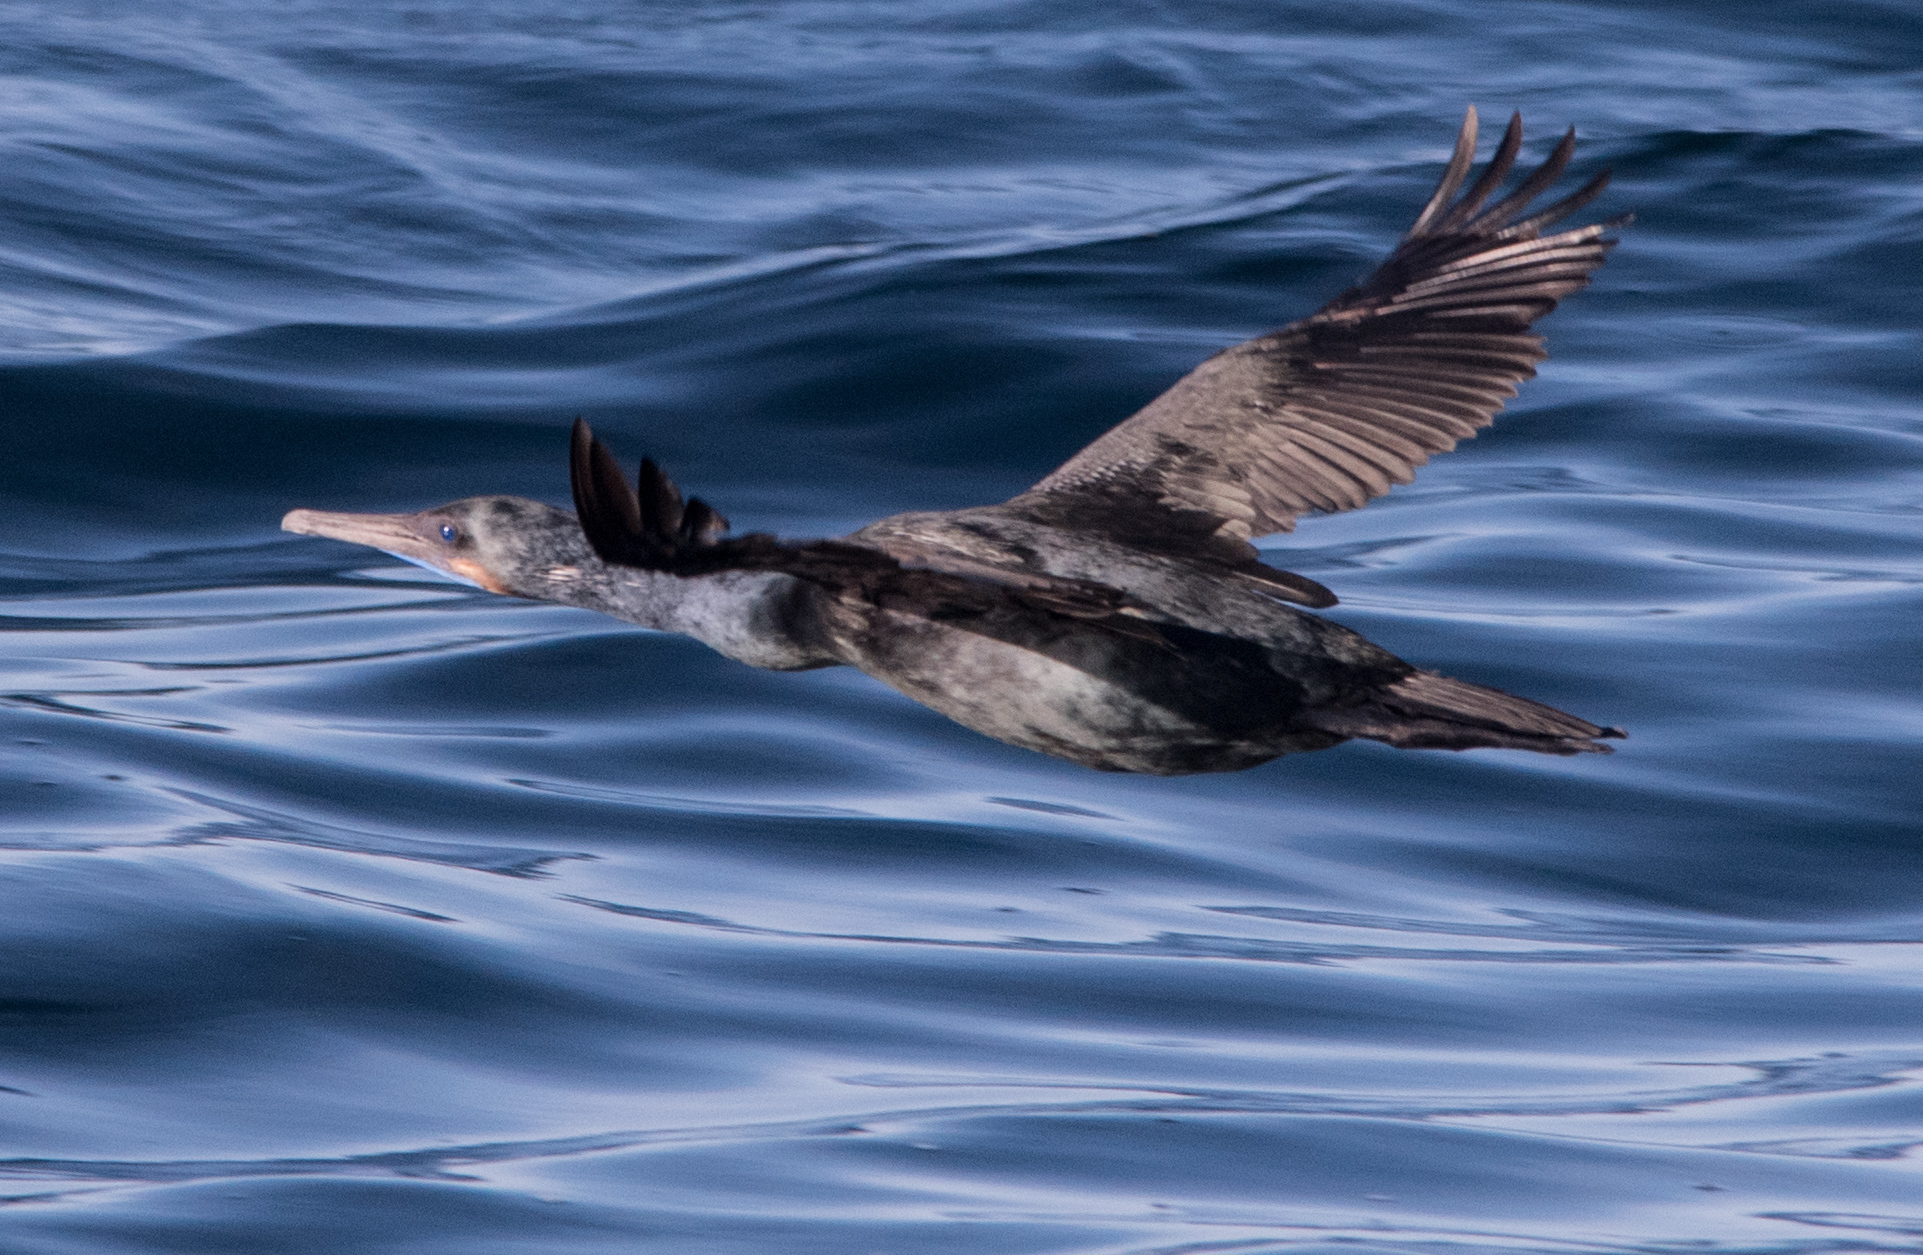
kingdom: Animalia
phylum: Chordata
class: Aves
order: Suliformes
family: Phalacrocoracidae
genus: Urile
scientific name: Urile penicillatus
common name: Brandt's cormorant
